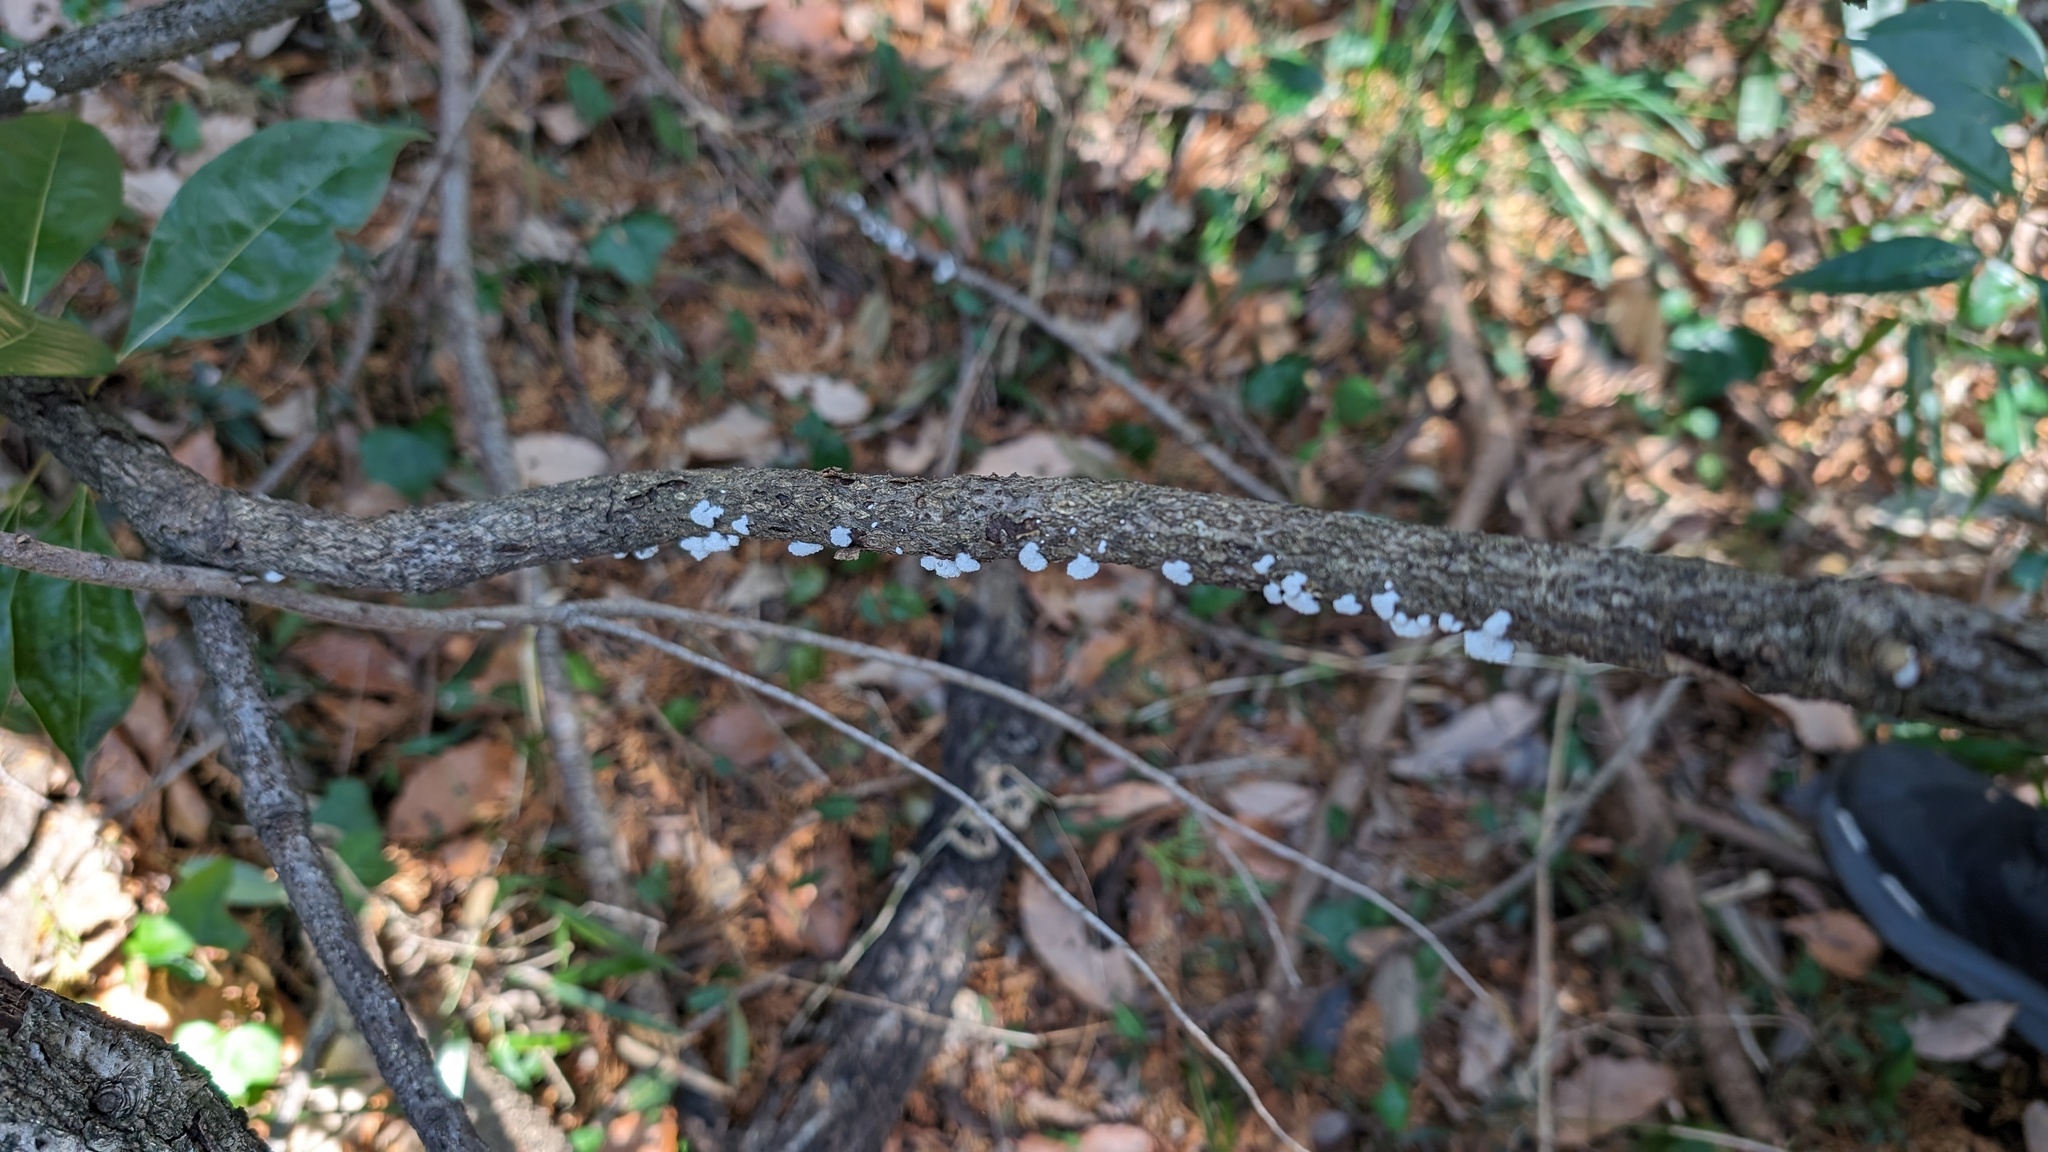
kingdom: Fungi
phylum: Basidiomycota
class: Agaricomycetes
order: Agaricales
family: Schizophyllaceae
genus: Schizophyllum
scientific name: Schizophyllum commune
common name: Common porecrust
